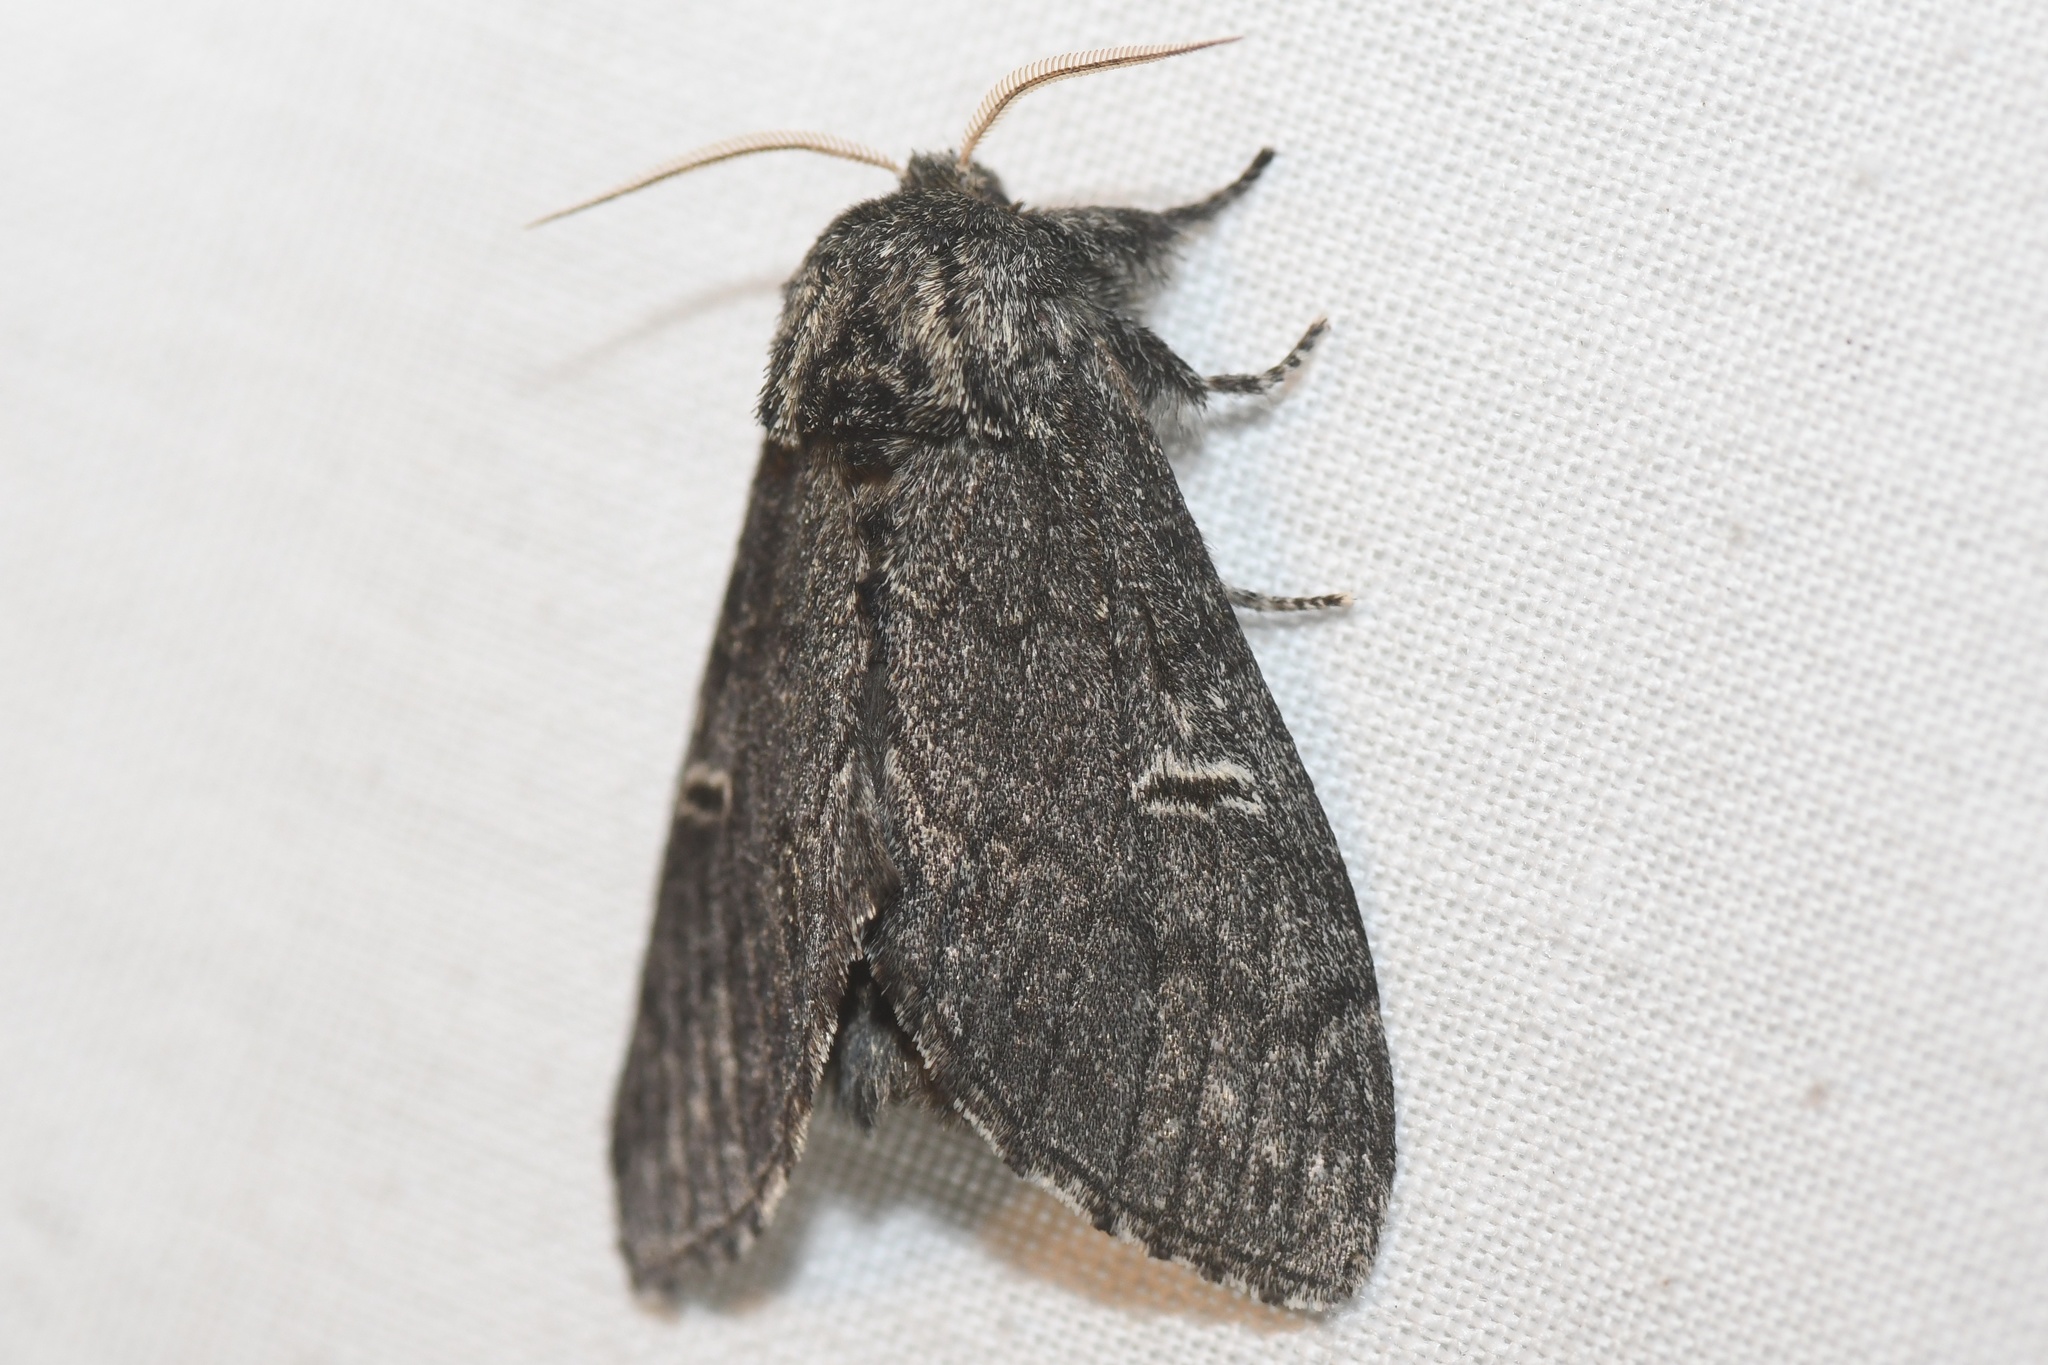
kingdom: Animalia
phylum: Arthropoda
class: Insecta
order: Lepidoptera
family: Notodontidae
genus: Notodonta
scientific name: Notodonta torva
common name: Large dark prominent
